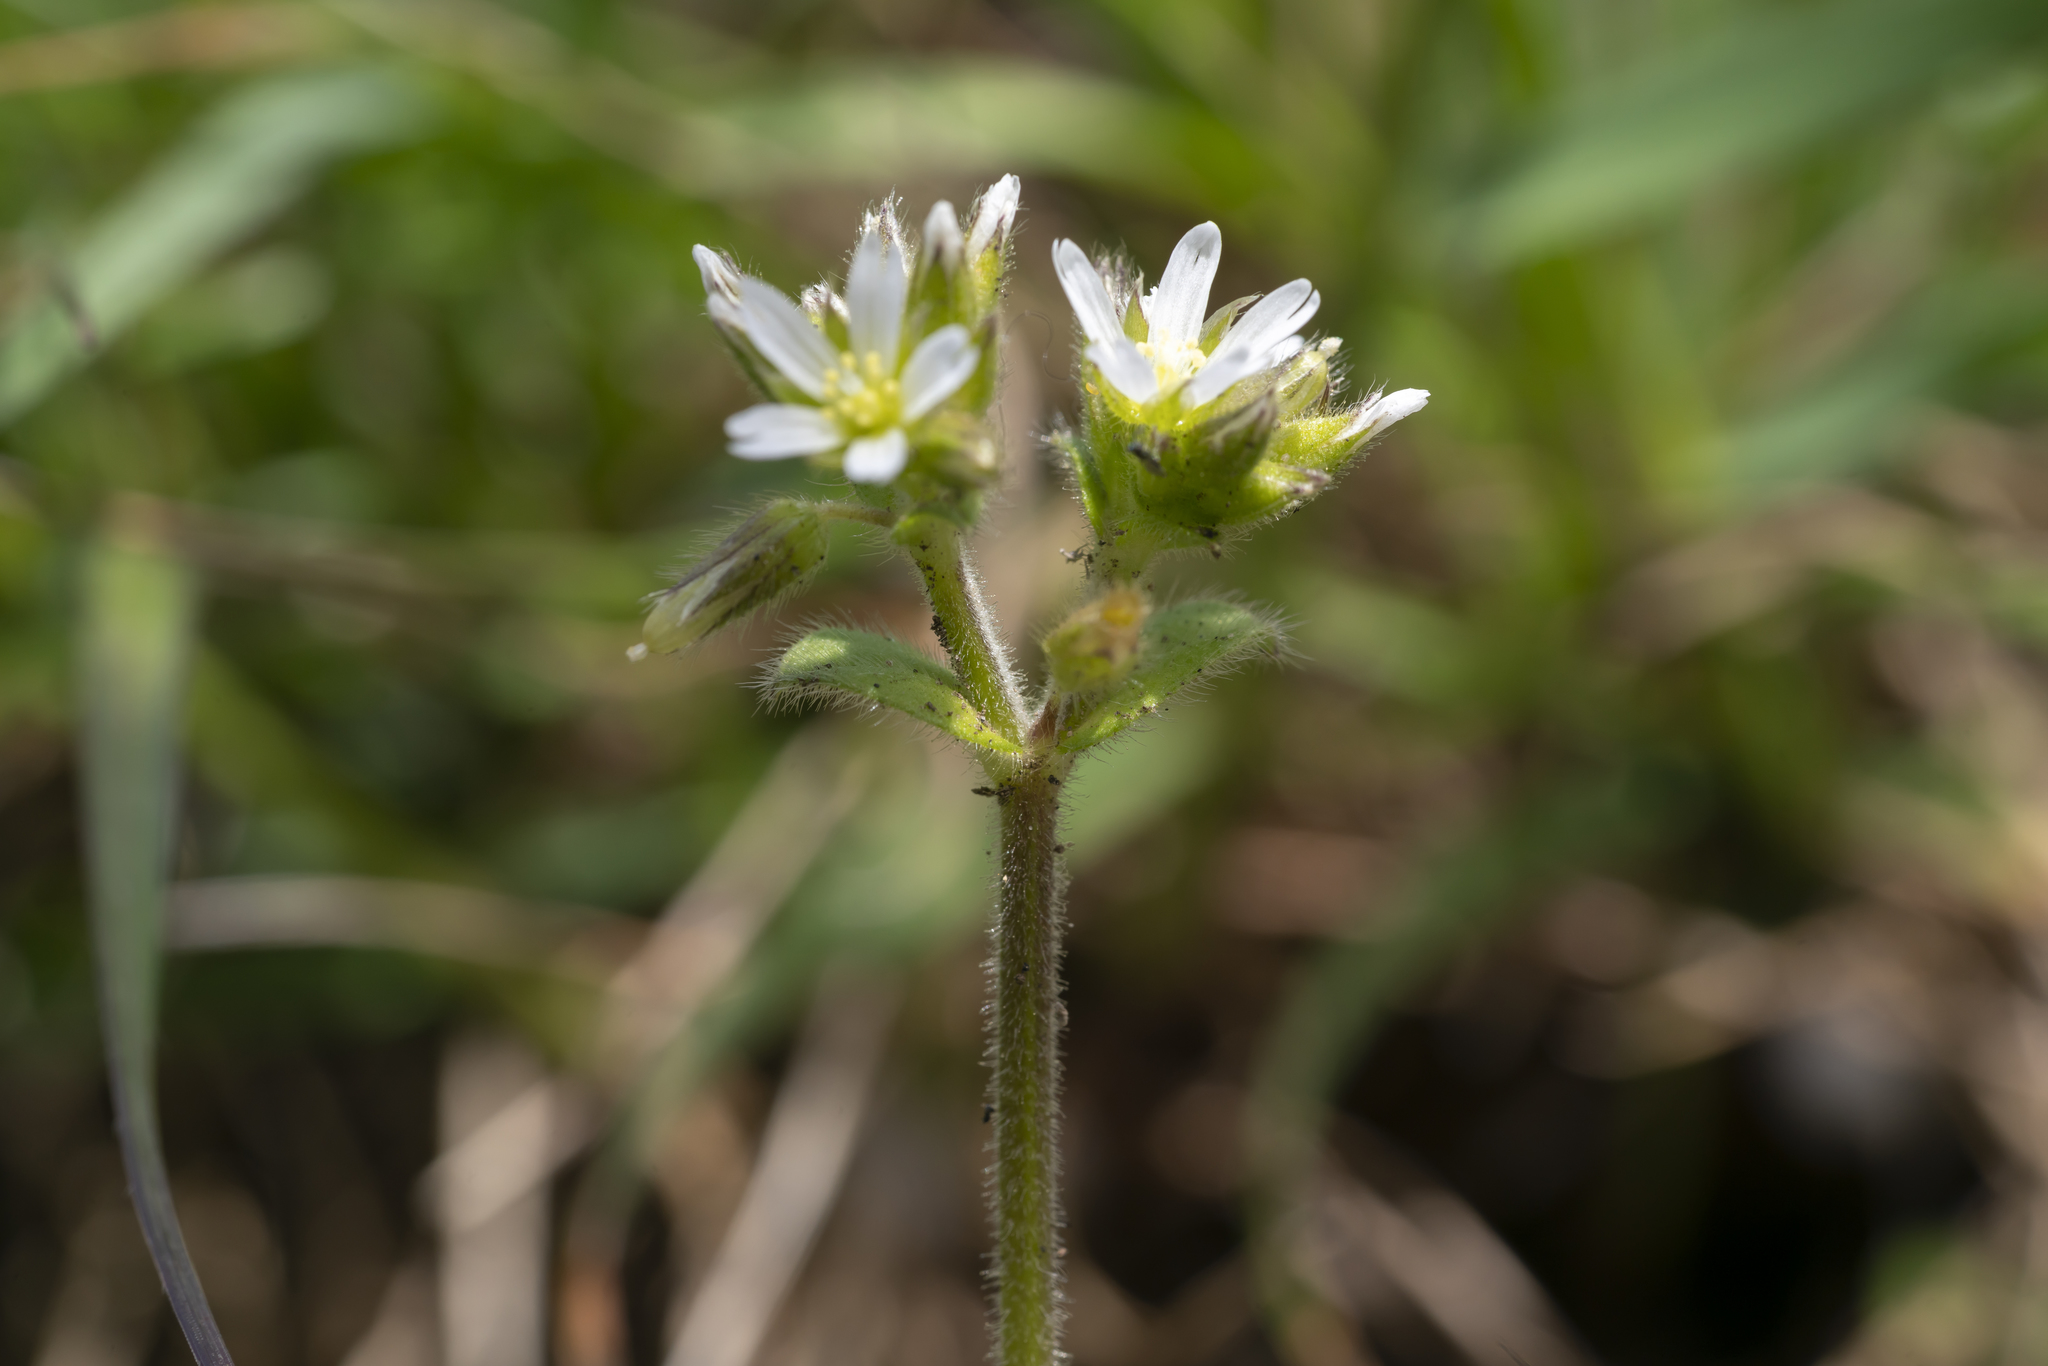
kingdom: Plantae
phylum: Tracheophyta
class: Magnoliopsida
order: Caryophyllales
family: Caryophyllaceae
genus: Cerastium
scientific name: Cerastium glomeratum
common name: Sticky chickweed
